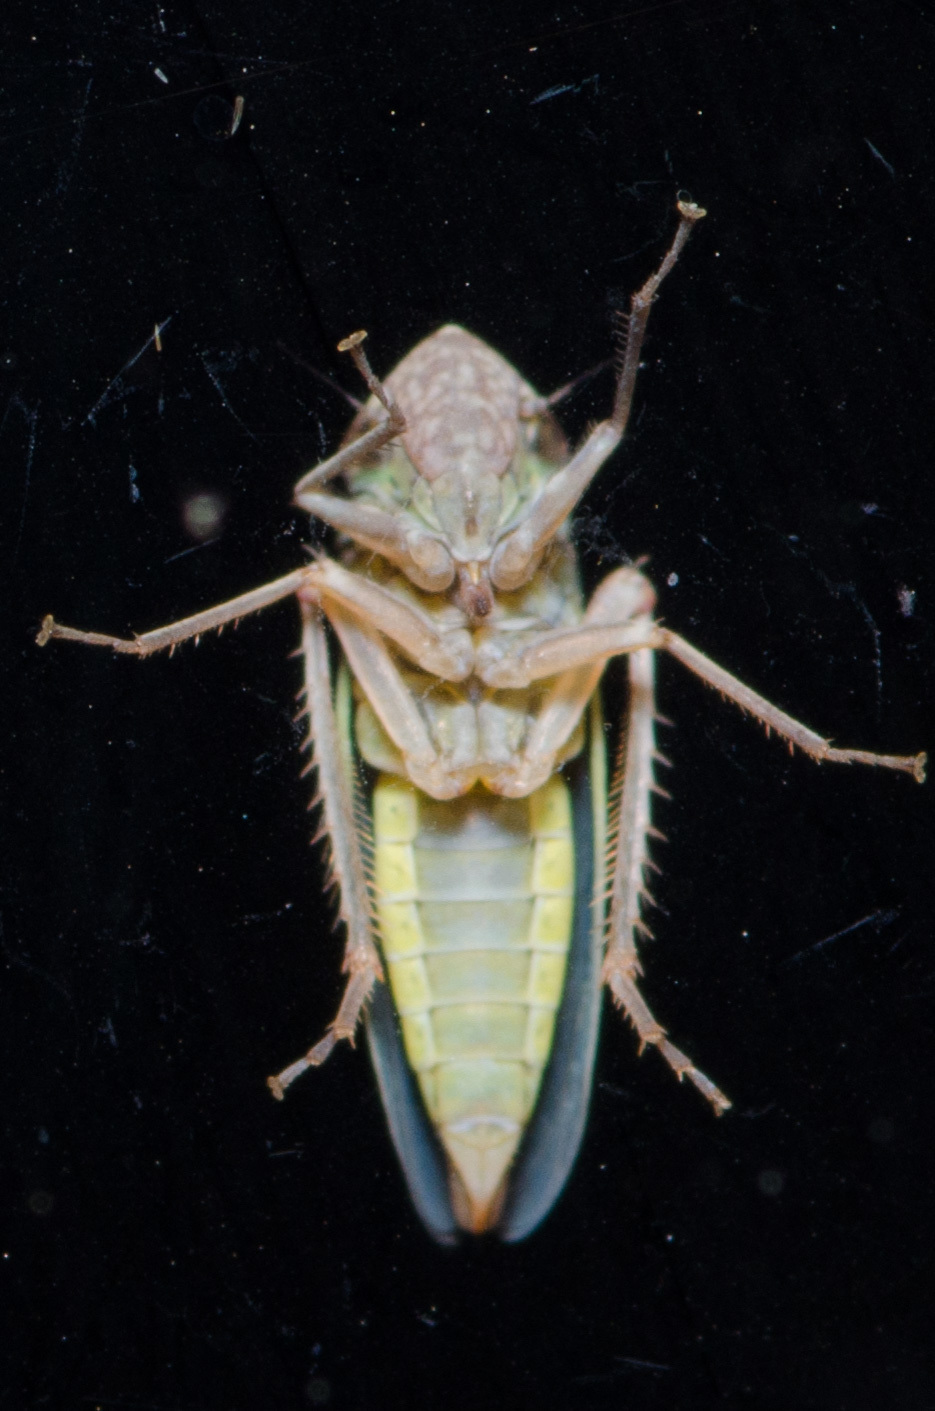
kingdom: Animalia
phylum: Arthropoda
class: Insecta
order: Hemiptera
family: Cicadellidae
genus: Xyphon
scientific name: Xyphon reticulatum
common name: Planthopper
